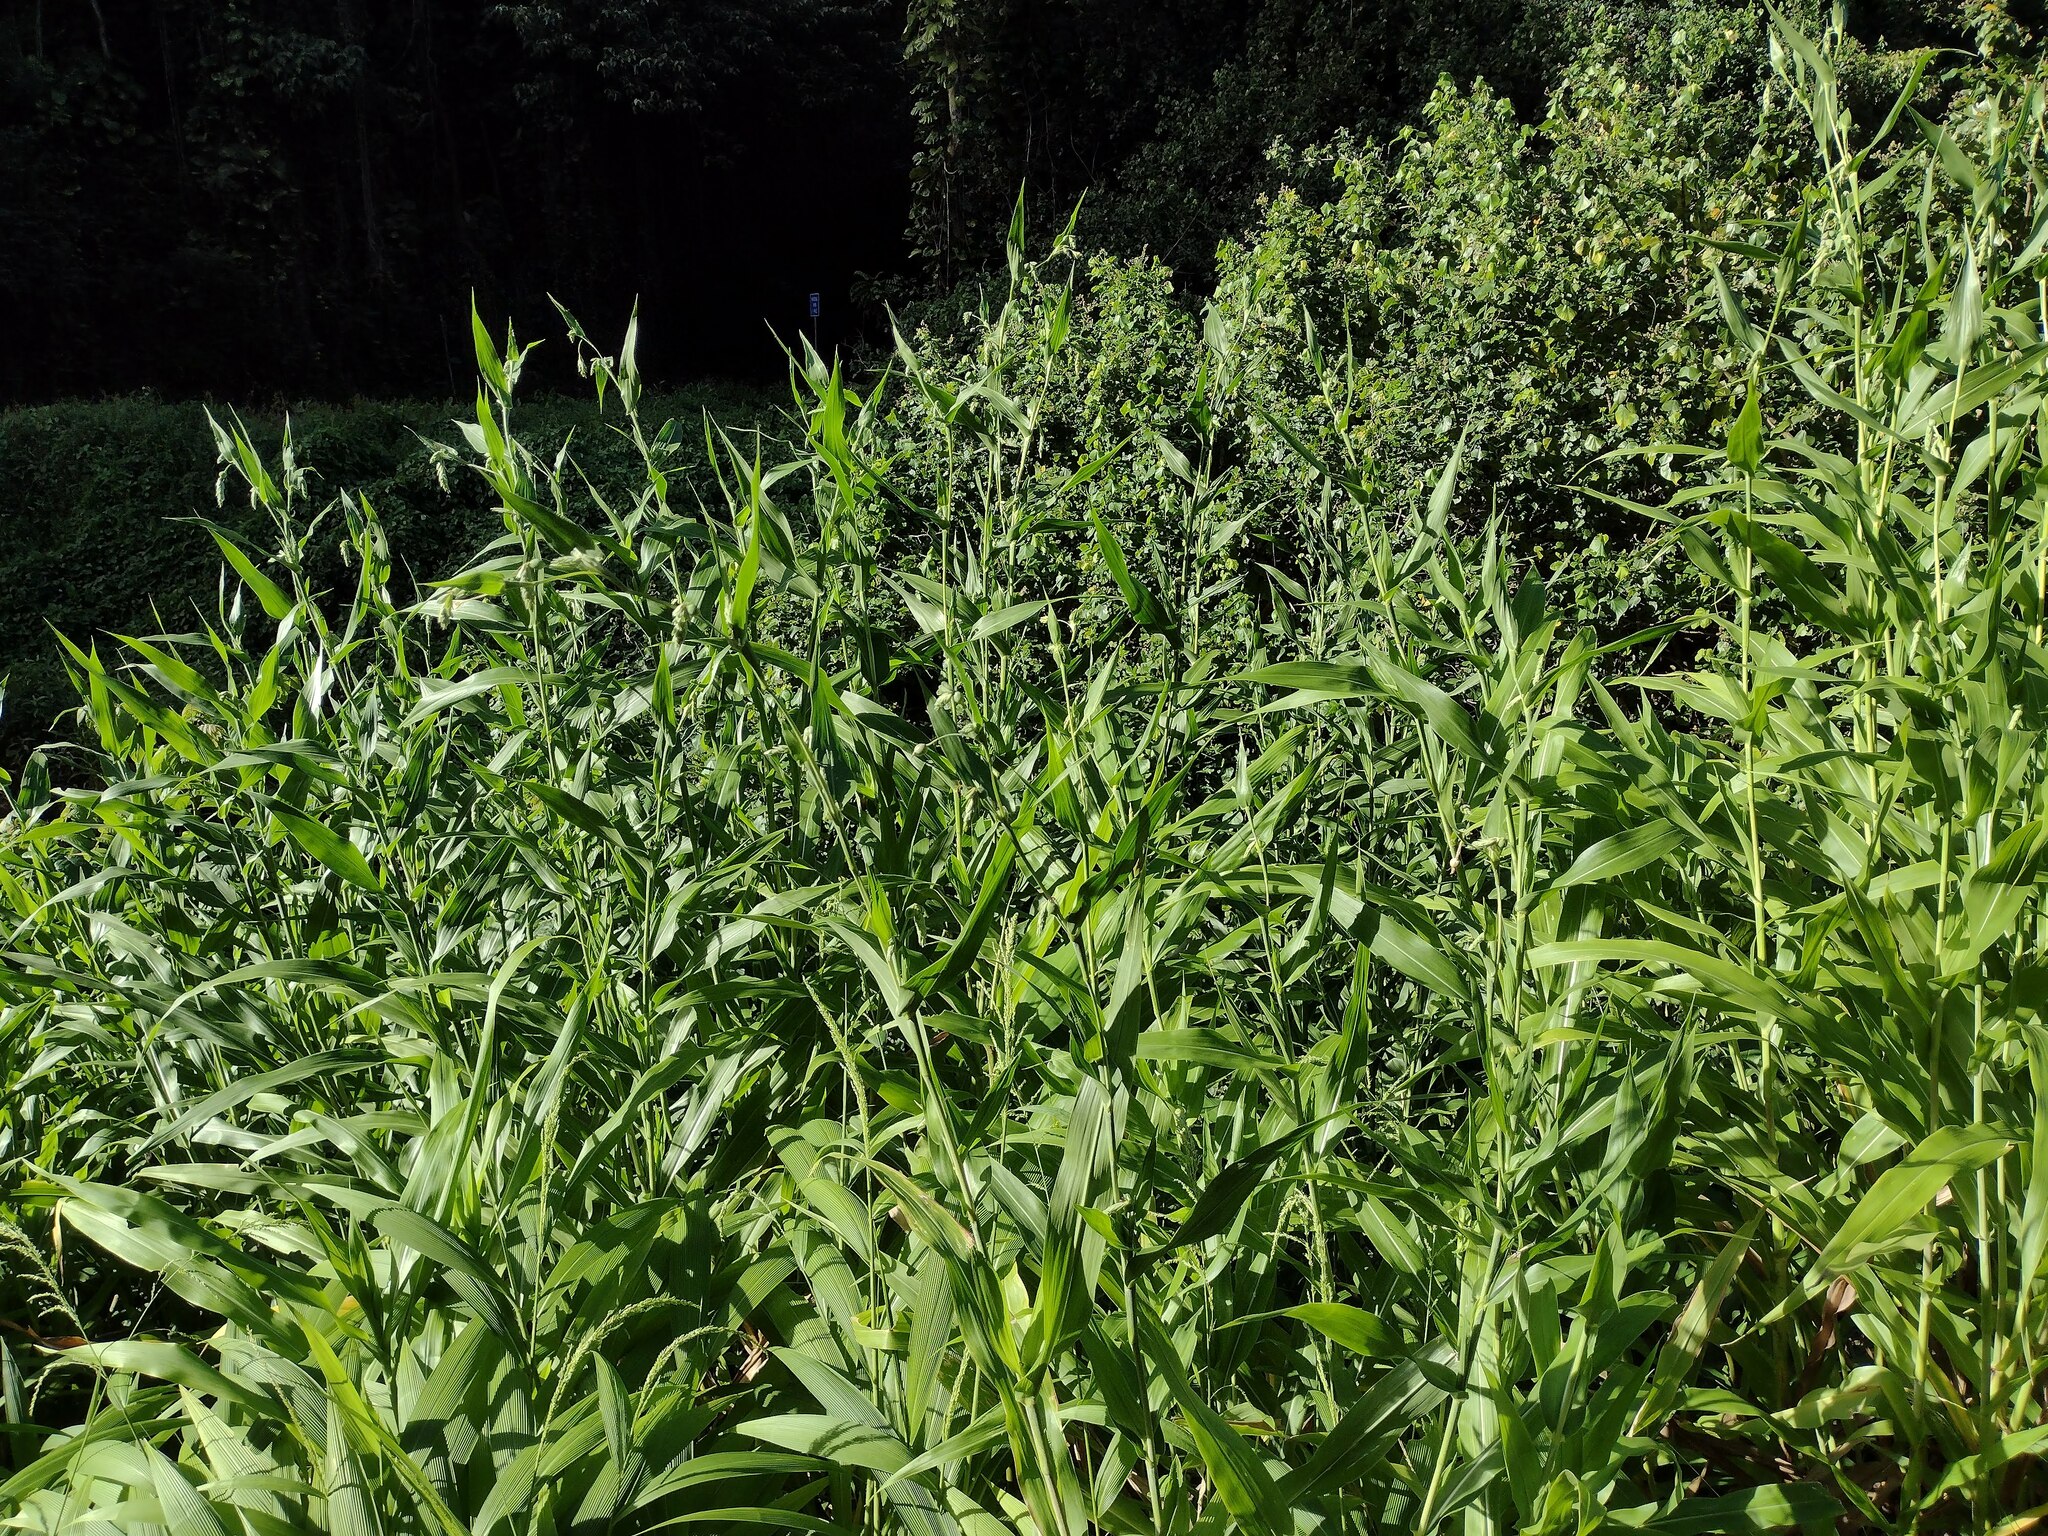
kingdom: Plantae
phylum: Tracheophyta
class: Liliopsida
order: Poales
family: Poaceae
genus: Coix
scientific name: Coix lacryma-jobi
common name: Job's tears
